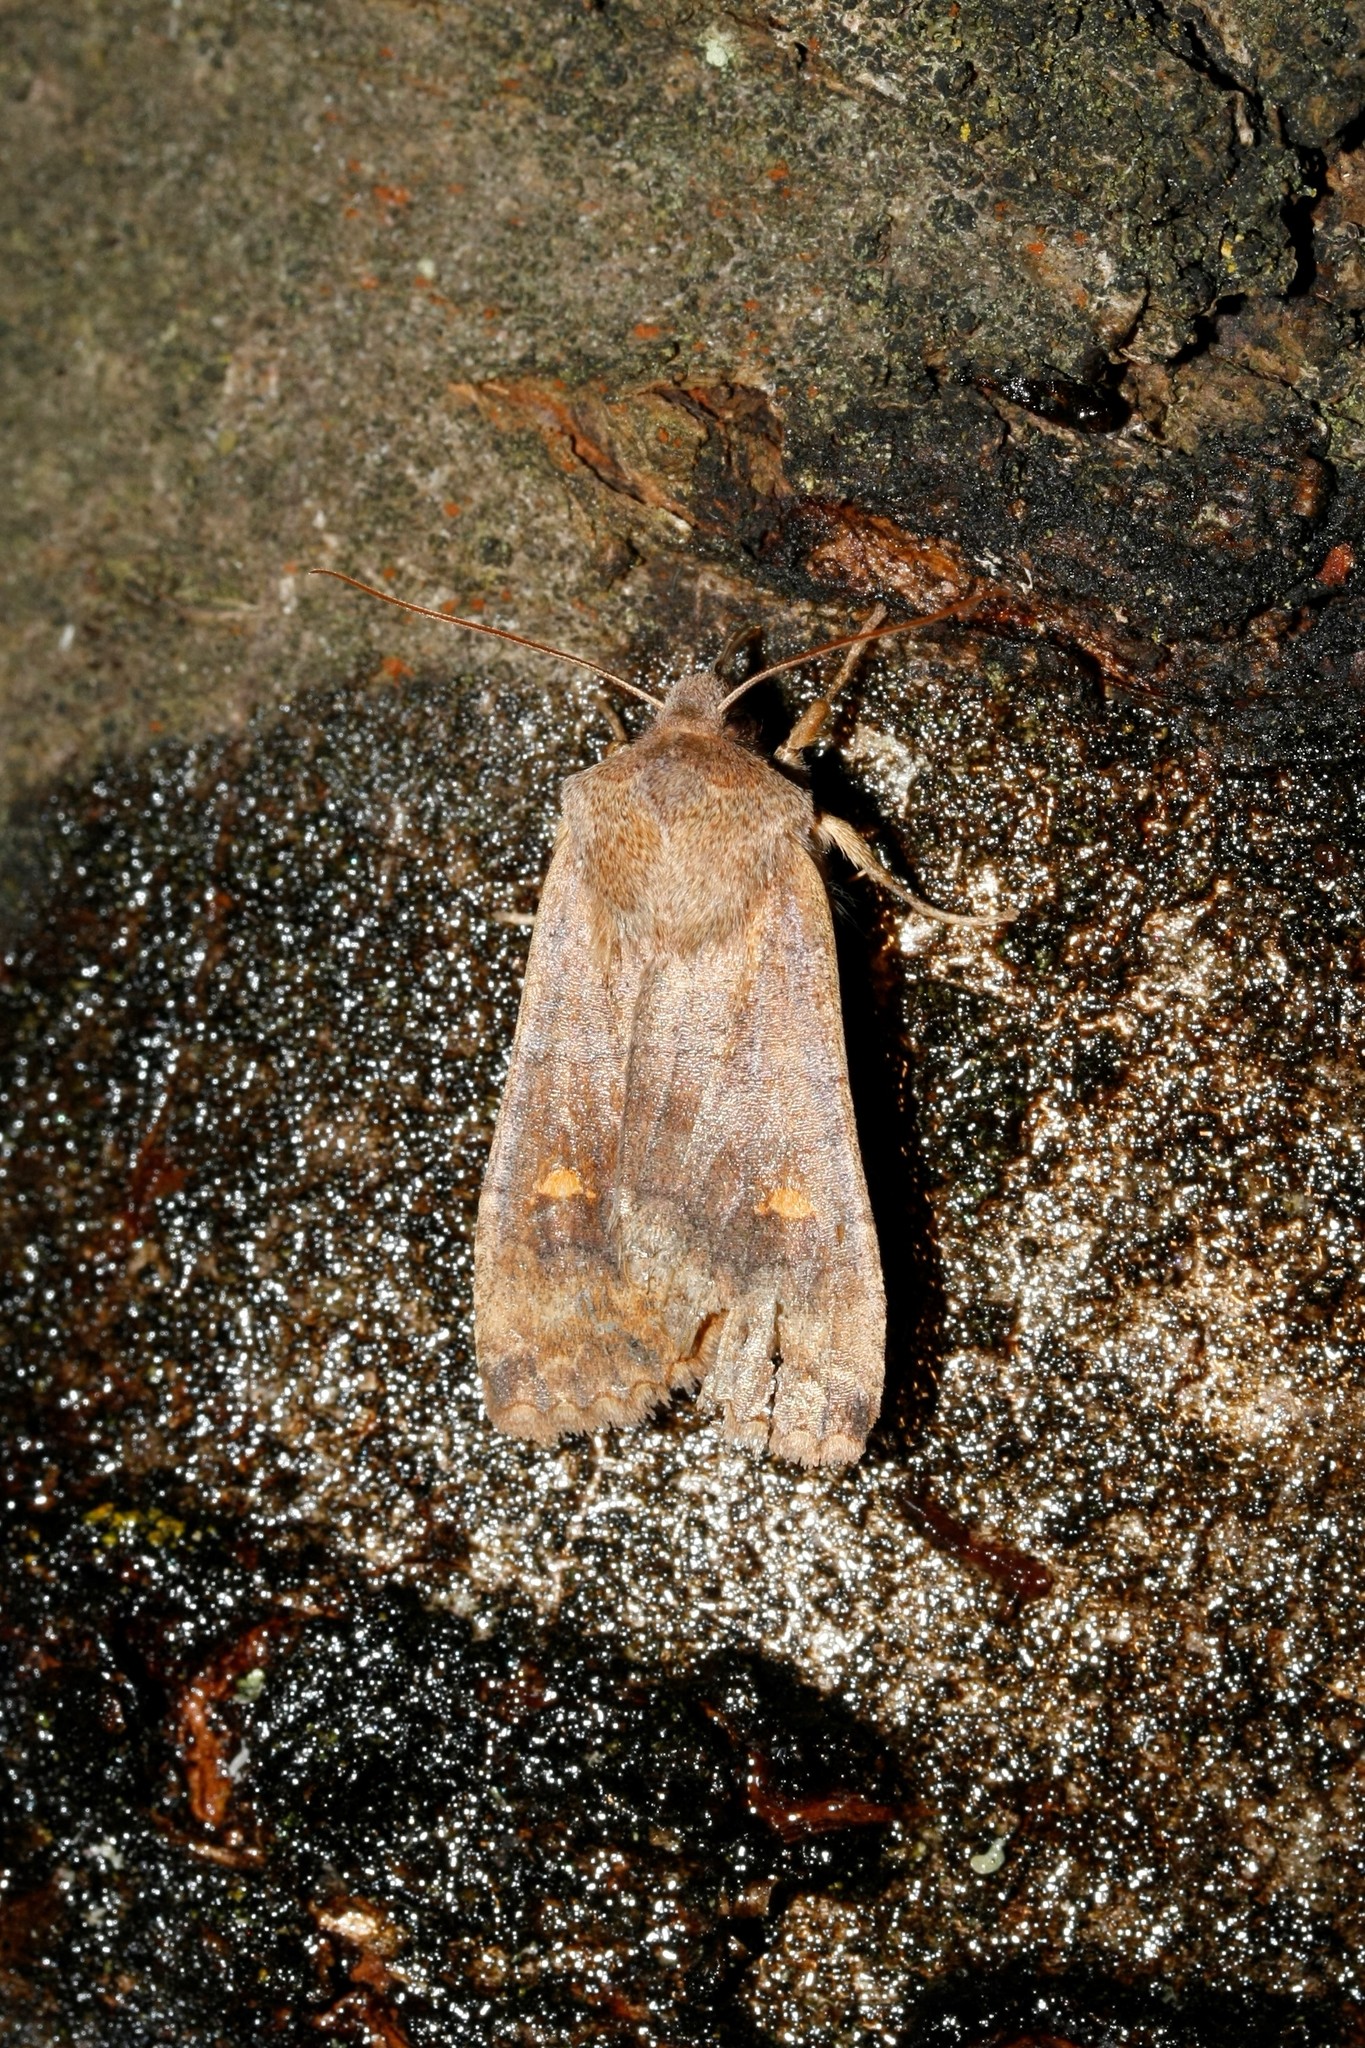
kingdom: Animalia
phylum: Arthropoda
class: Insecta
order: Lepidoptera
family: Noctuidae
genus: Eupsilia
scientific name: Eupsilia transversa
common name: Satellite
